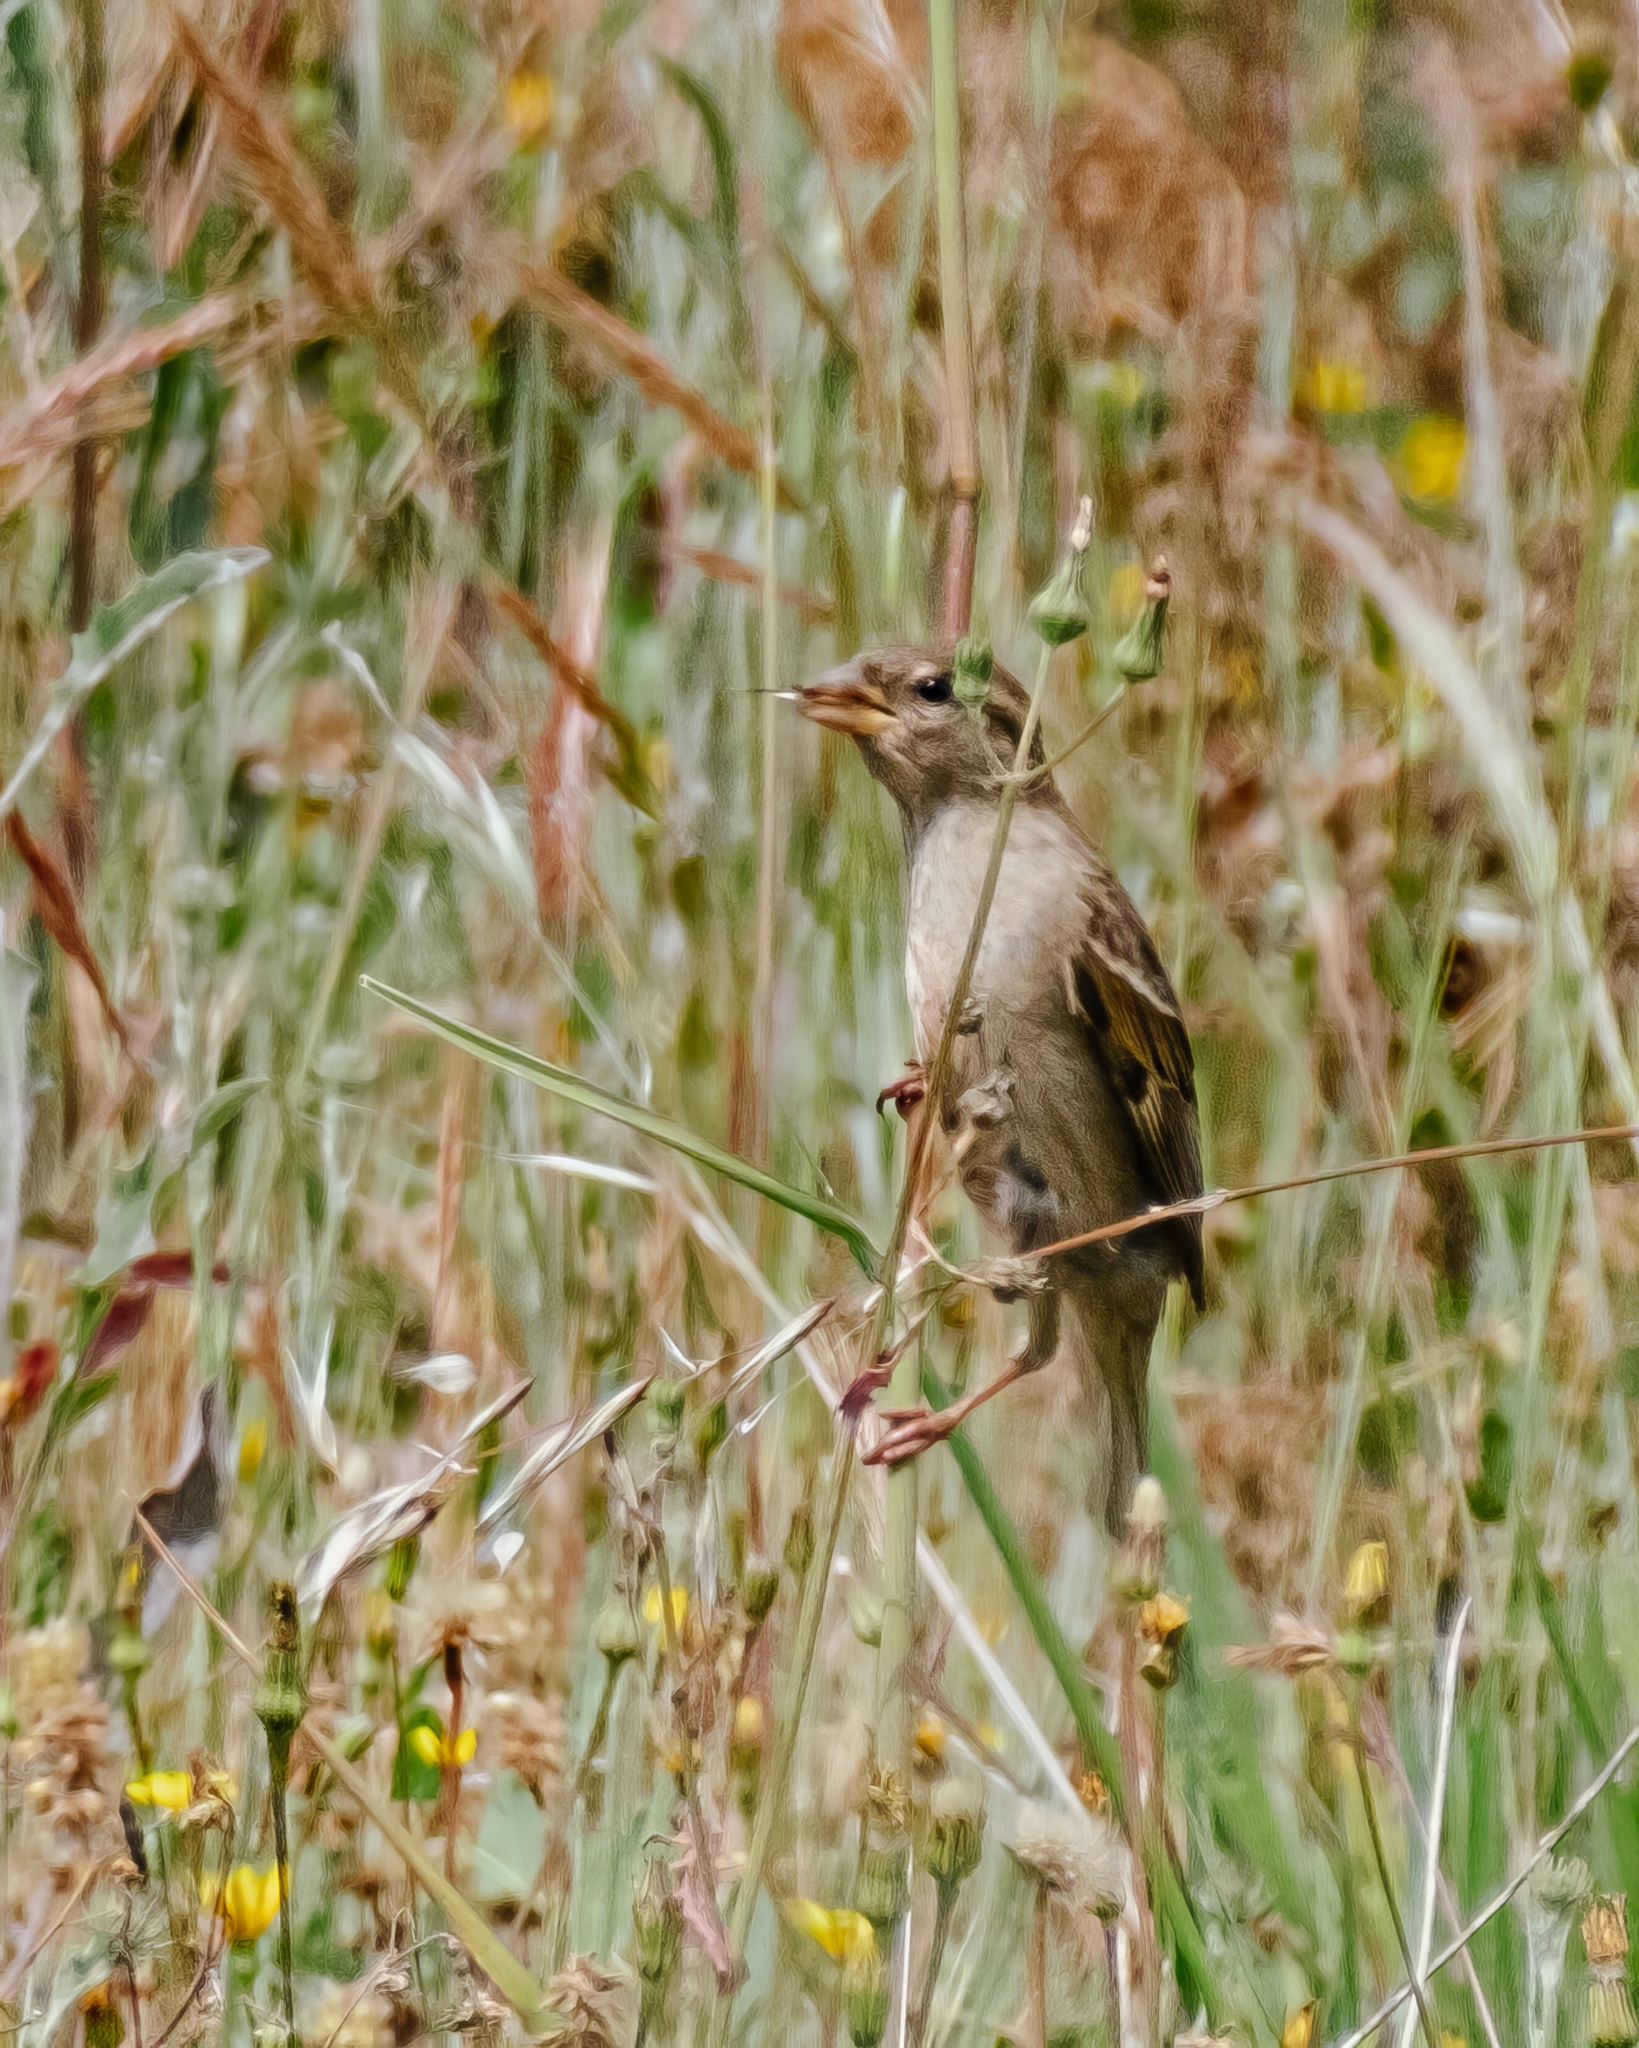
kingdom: Animalia
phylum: Chordata
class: Aves
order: Passeriformes
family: Passeridae
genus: Passer
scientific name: Passer domesticus
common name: House sparrow
